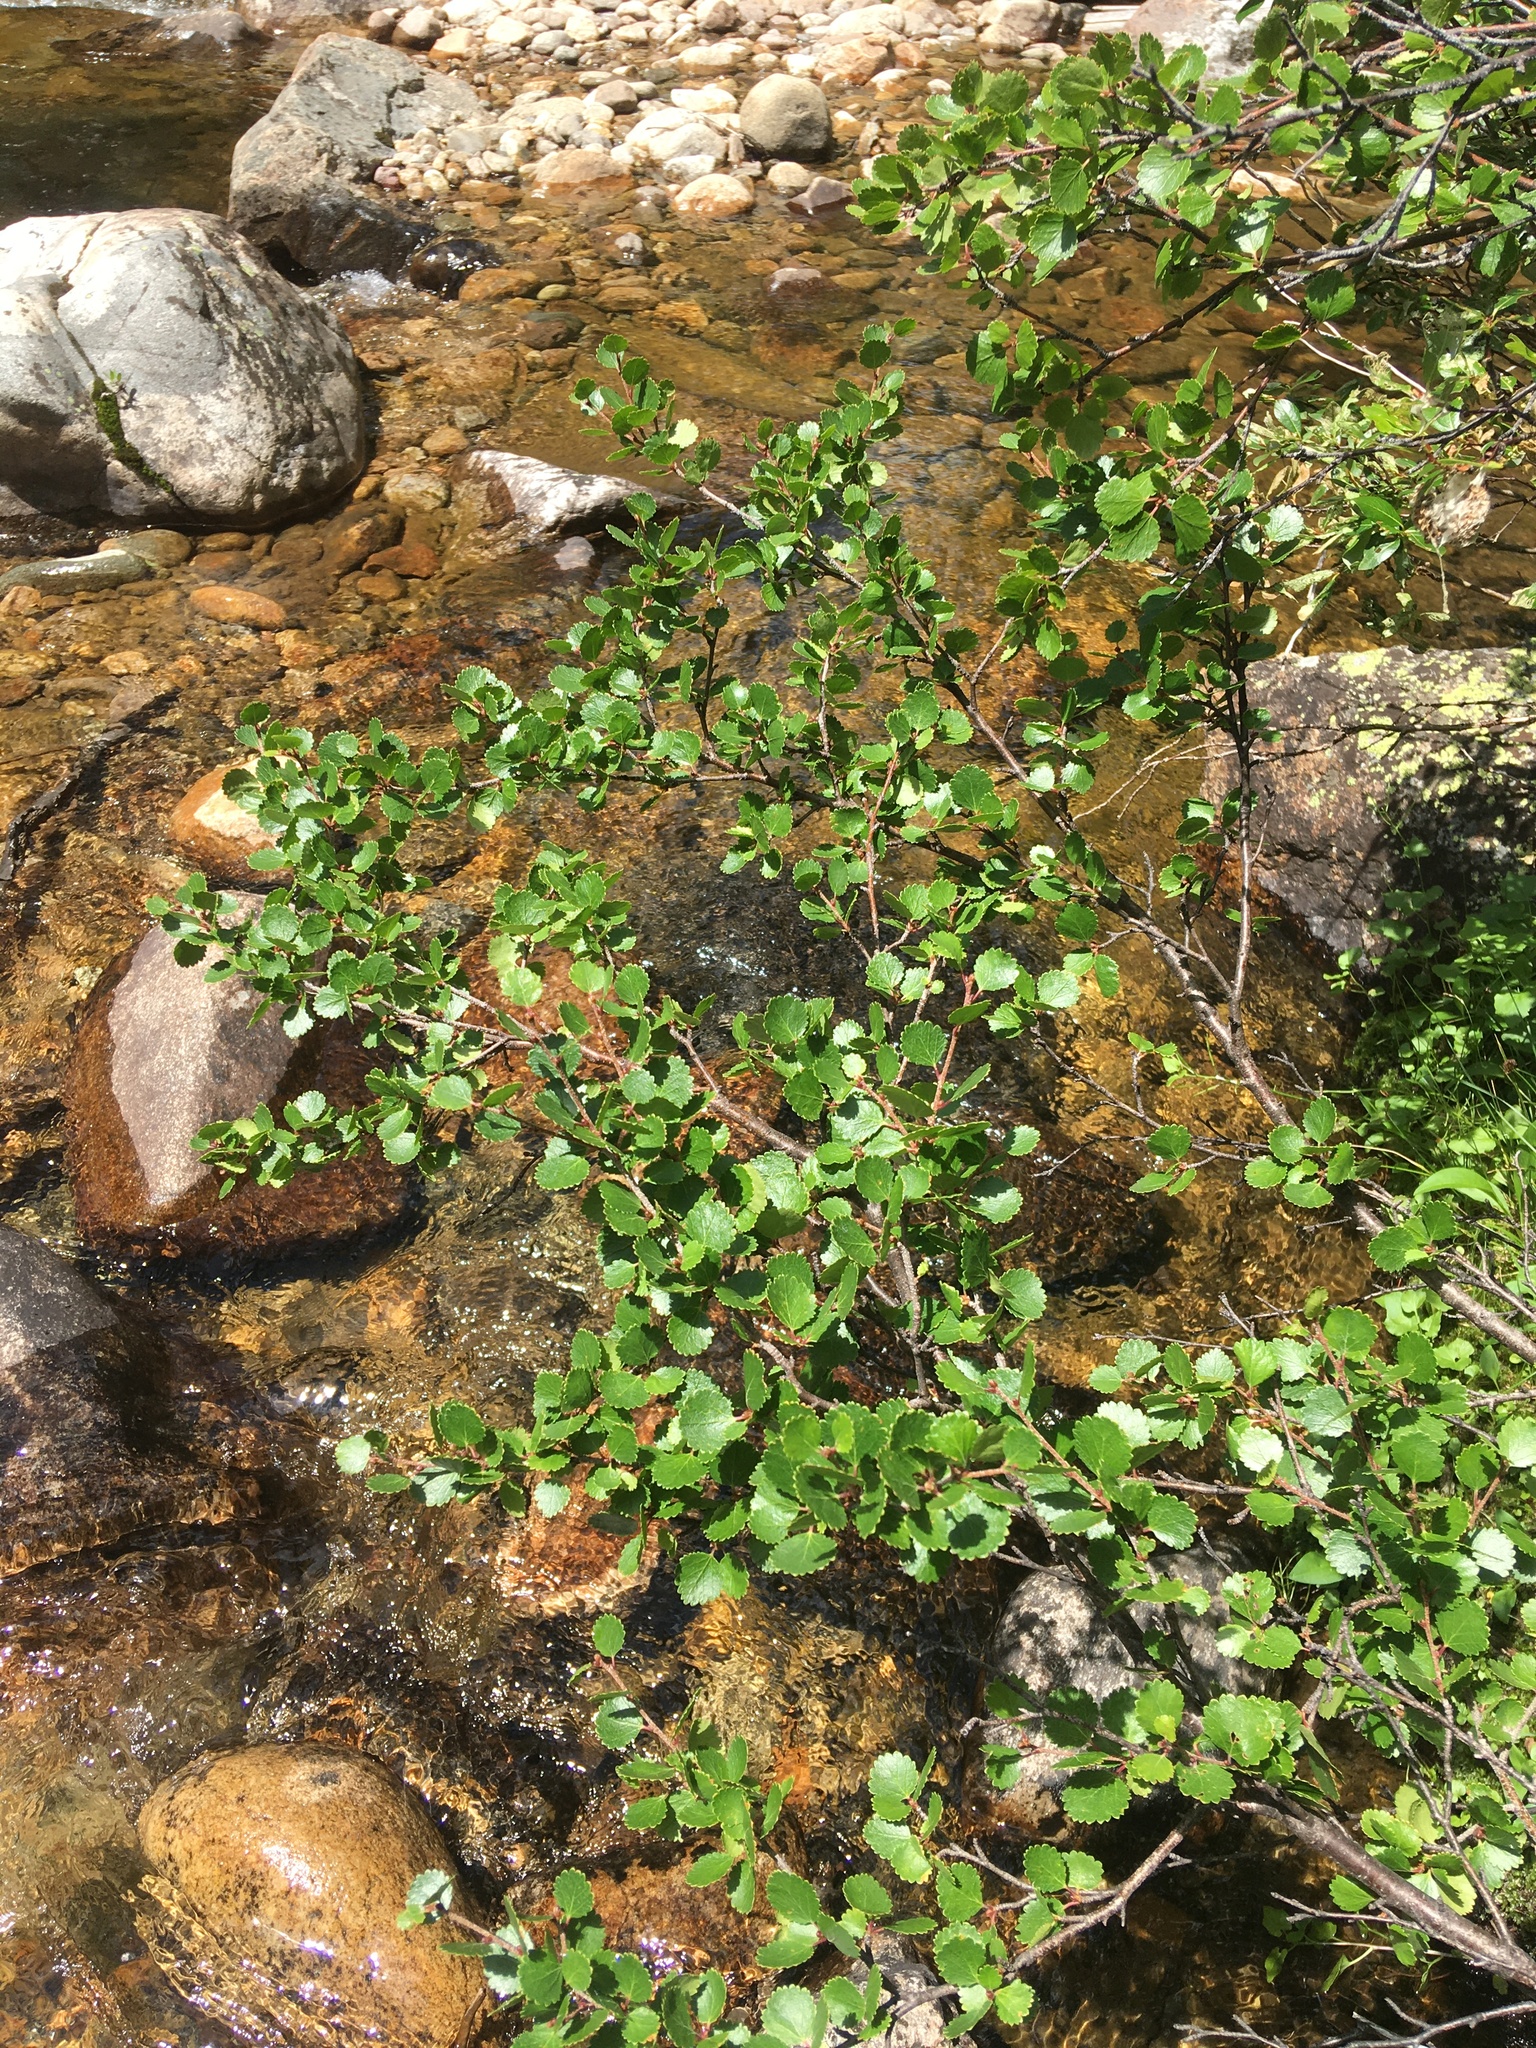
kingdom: Plantae
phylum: Tracheophyta
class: Magnoliopsida
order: Fagales
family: Betulaceae
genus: Betula
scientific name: Betula glandulosa
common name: Dwarf birch
